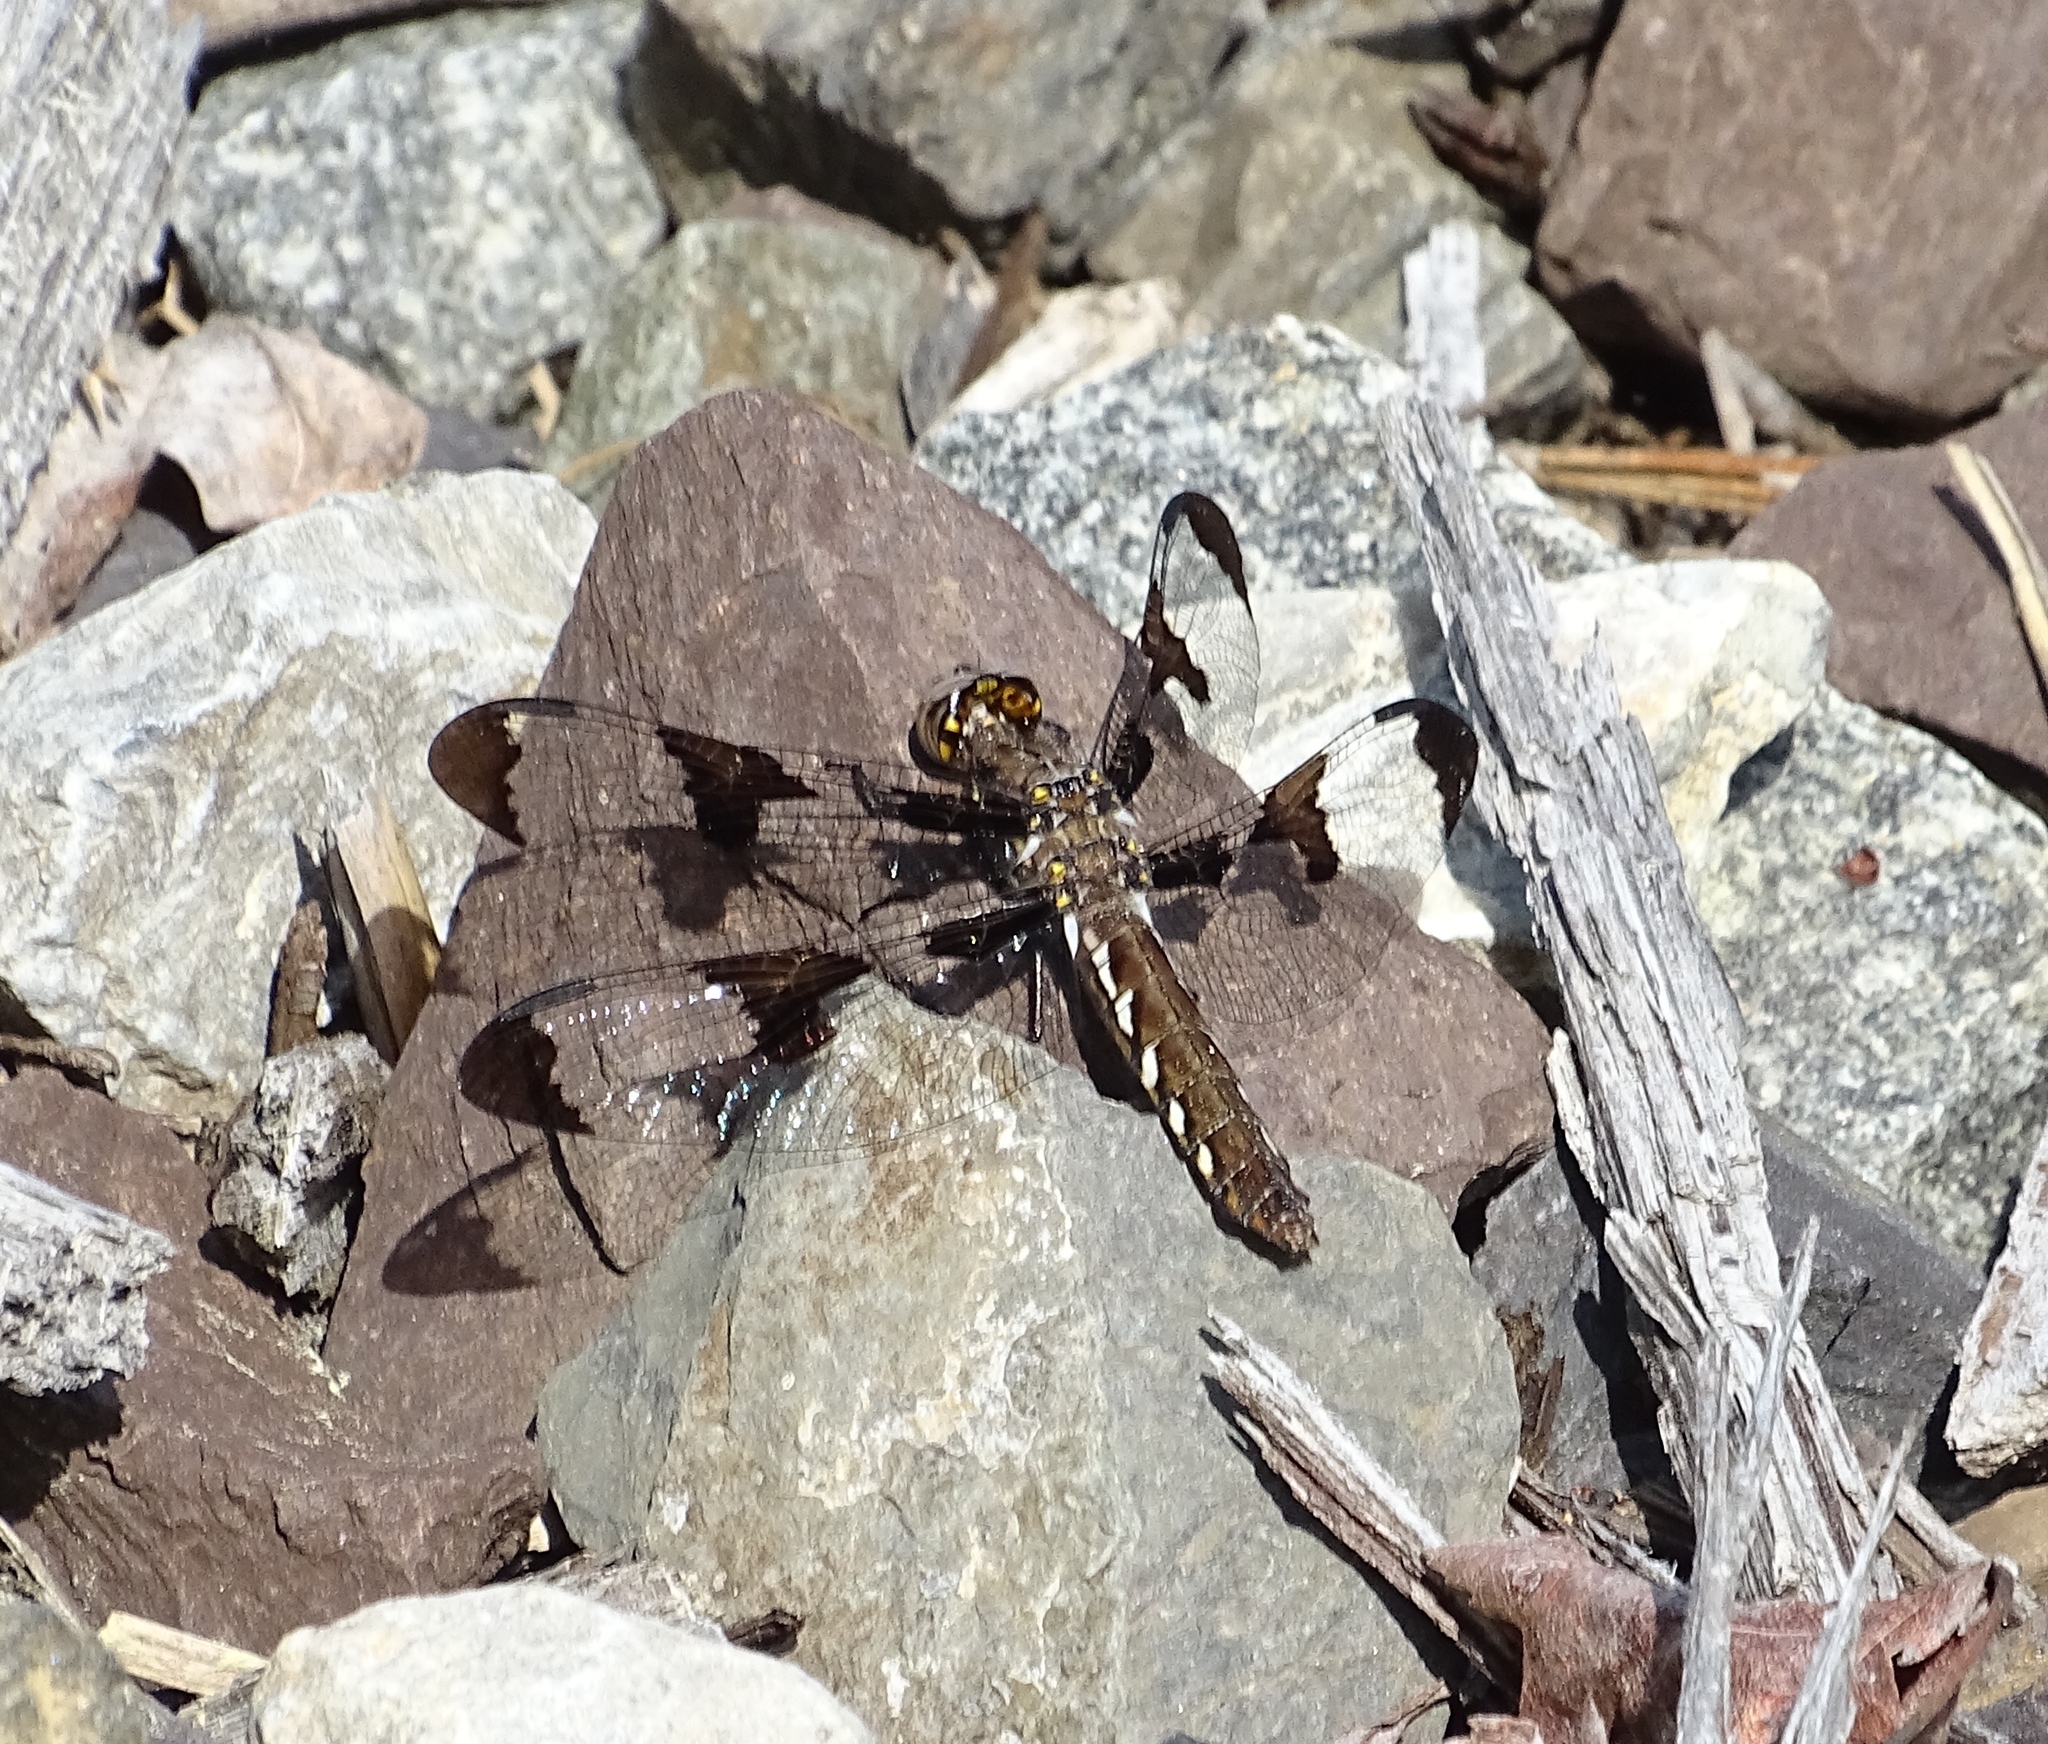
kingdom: Animalia
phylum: Arthropoda
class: Insecta
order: Odonata
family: Libellulidae
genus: Plathemis
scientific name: Plathemis lydia
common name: Common whitetail
